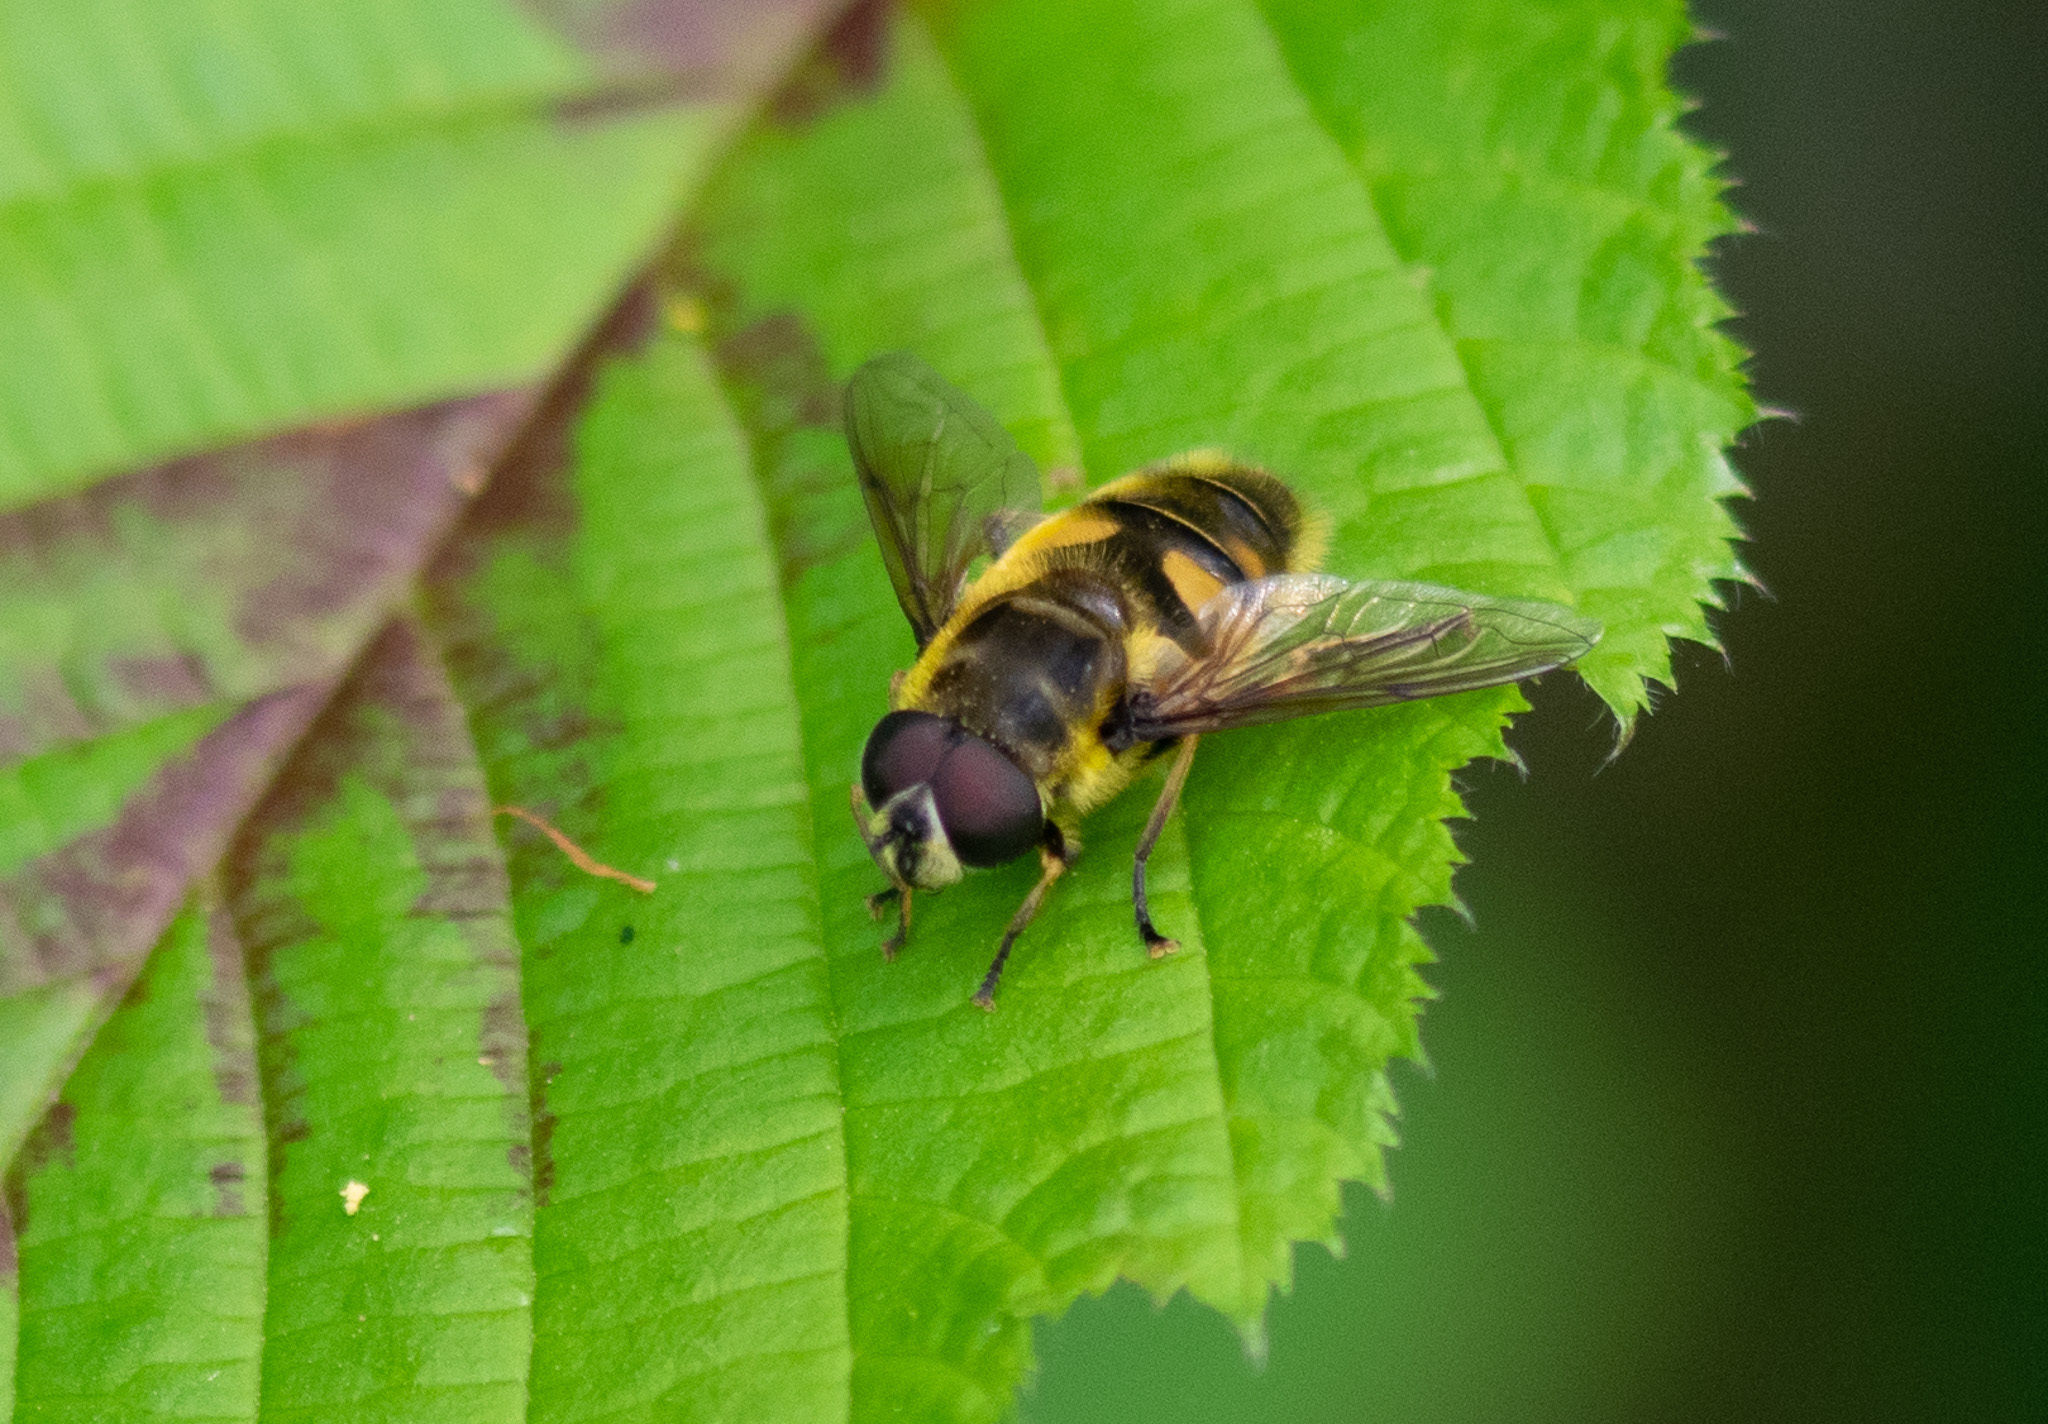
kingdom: Animalia
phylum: Arthropoda
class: Insecta
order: Diptera
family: Syrphidae
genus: Myathropa
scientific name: Myathropa florea
